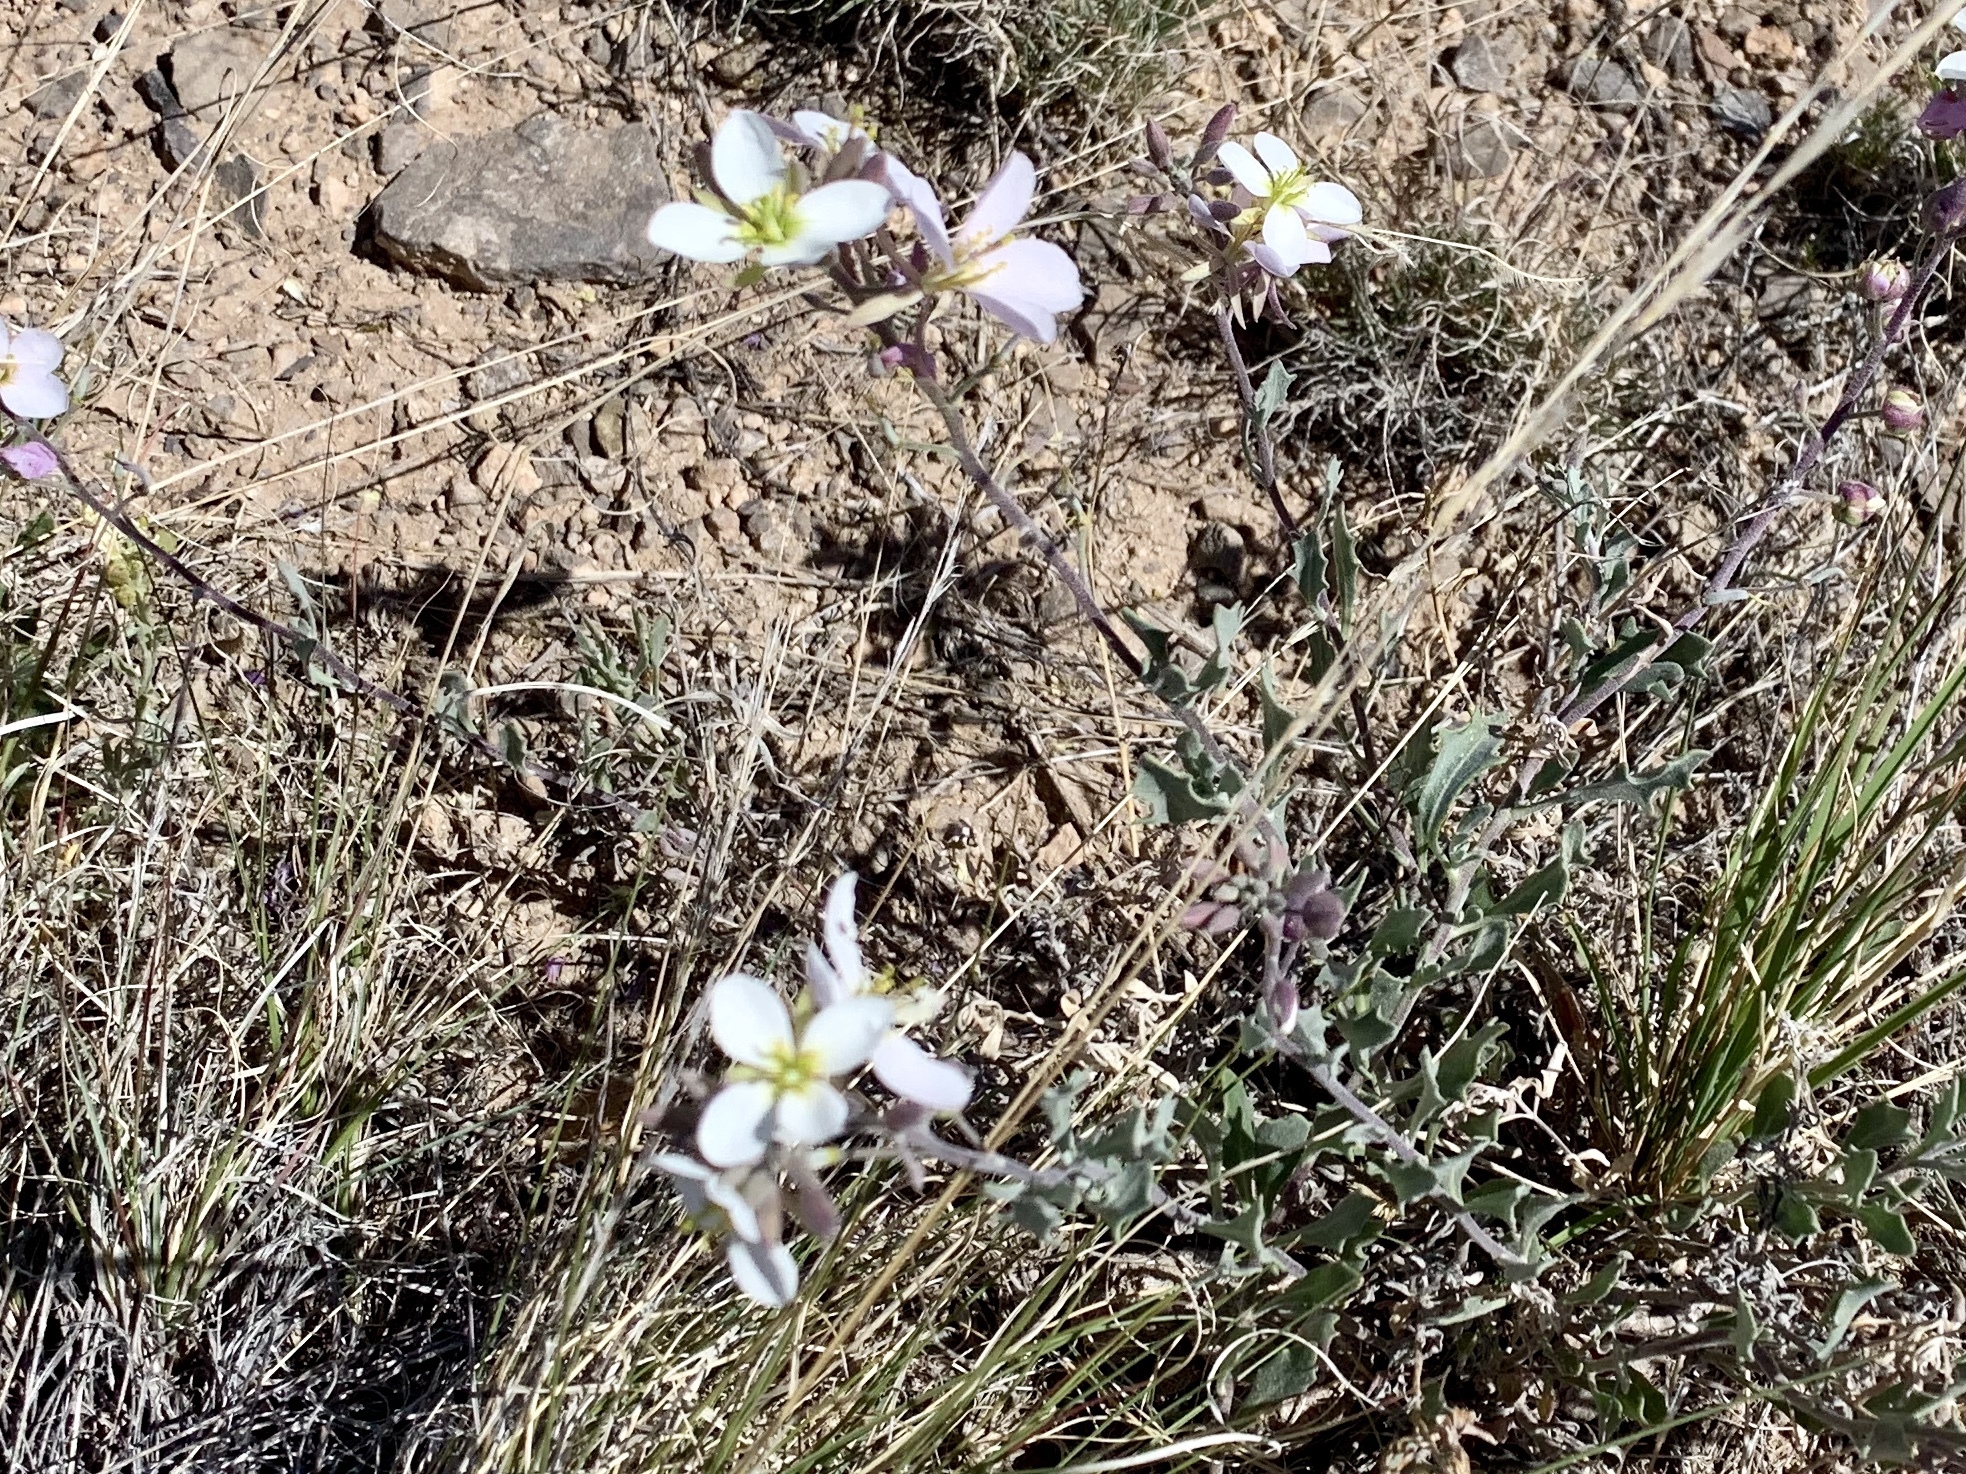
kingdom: Plantae
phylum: Tracheophyta
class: Magnoliopsida
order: Brassicales
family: Brassicaceae
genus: Nerisyrenia
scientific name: Nerisyrenia camporum
